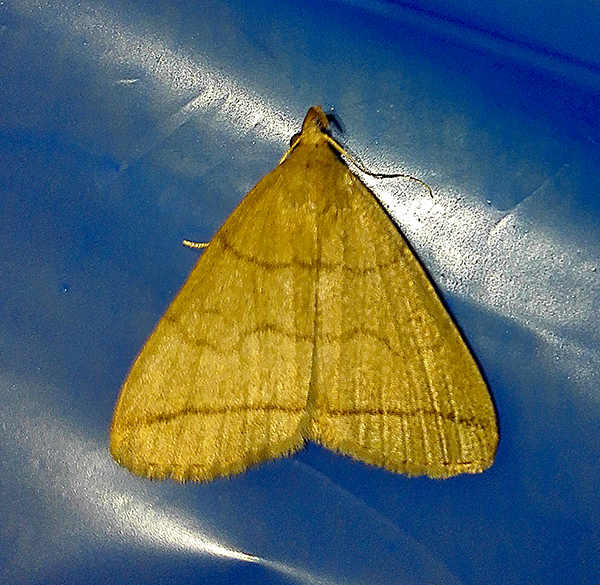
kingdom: Animalia
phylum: Arthropoda
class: Insecta
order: Lepidoptera
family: Erebidae
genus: Herminia
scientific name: Herminia tarsipennalis
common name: Fan-foot
